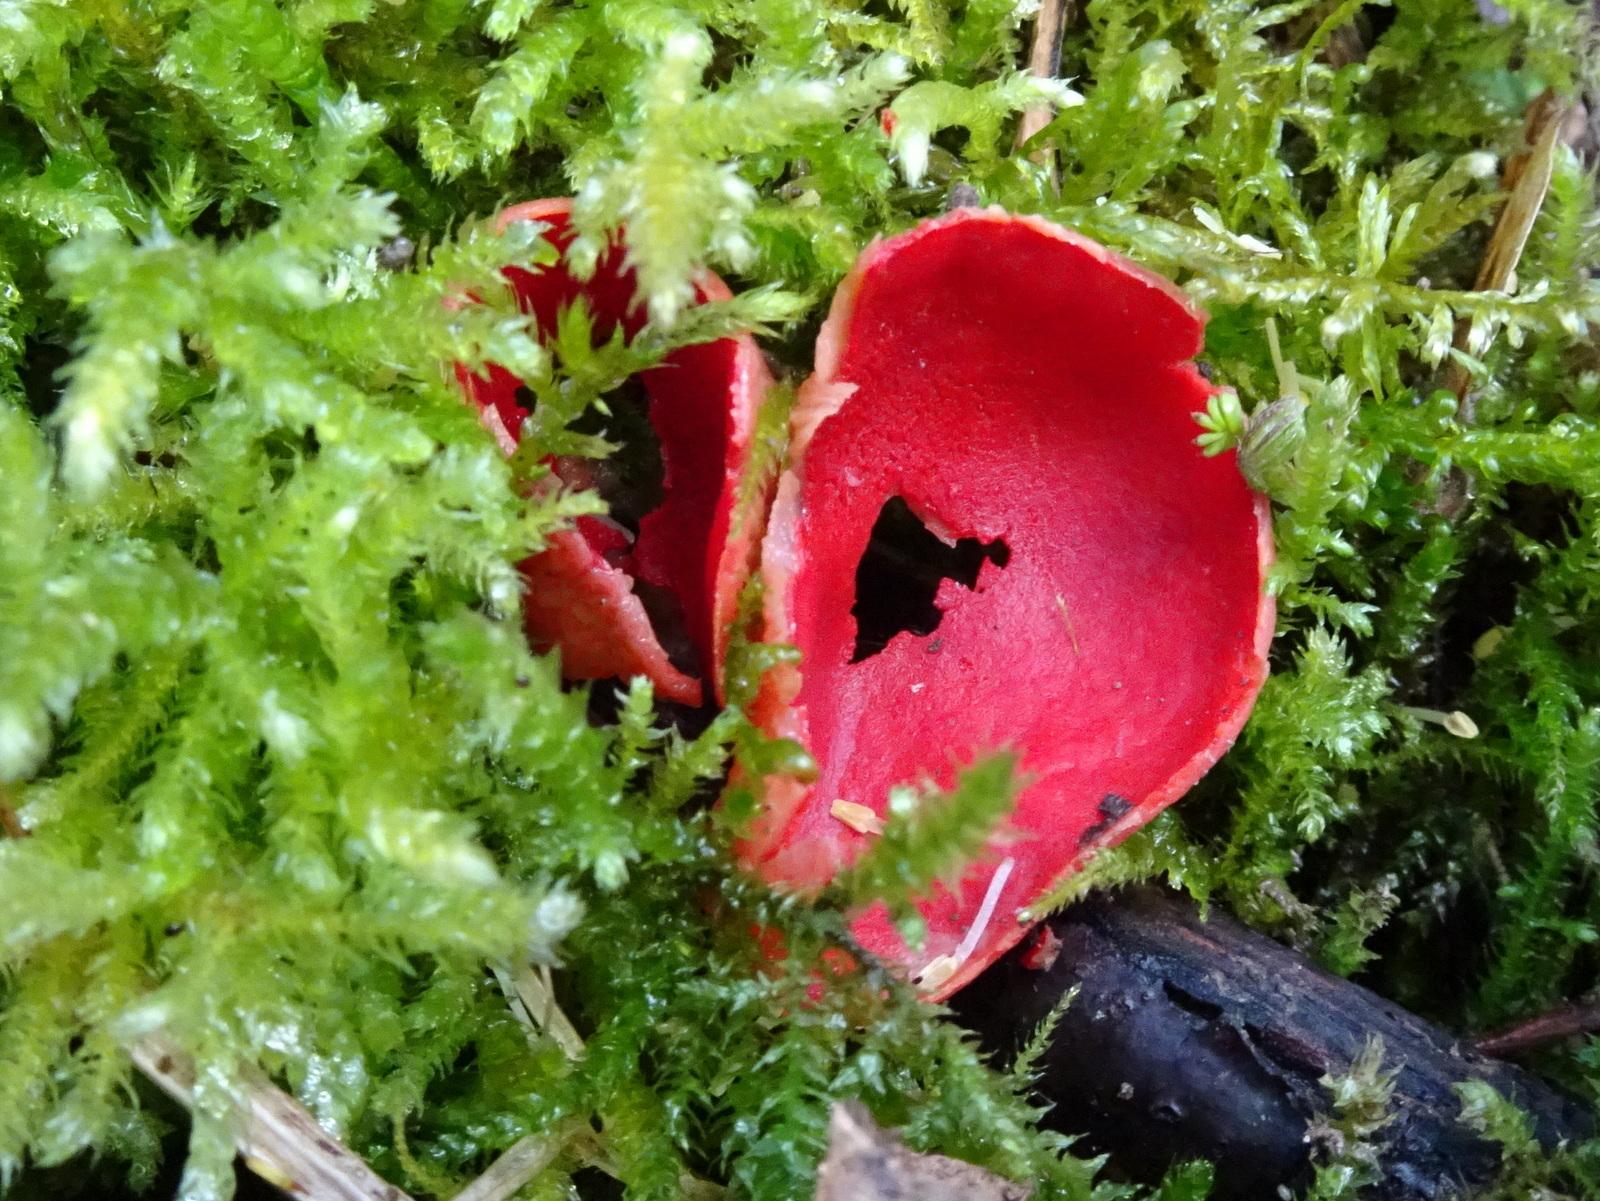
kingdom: Fungi
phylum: Ascomycota
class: Pezizomycetes
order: Pezizales
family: Sarcoscyphaceae
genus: Sarcoscypha
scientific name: Sarcoscypha
